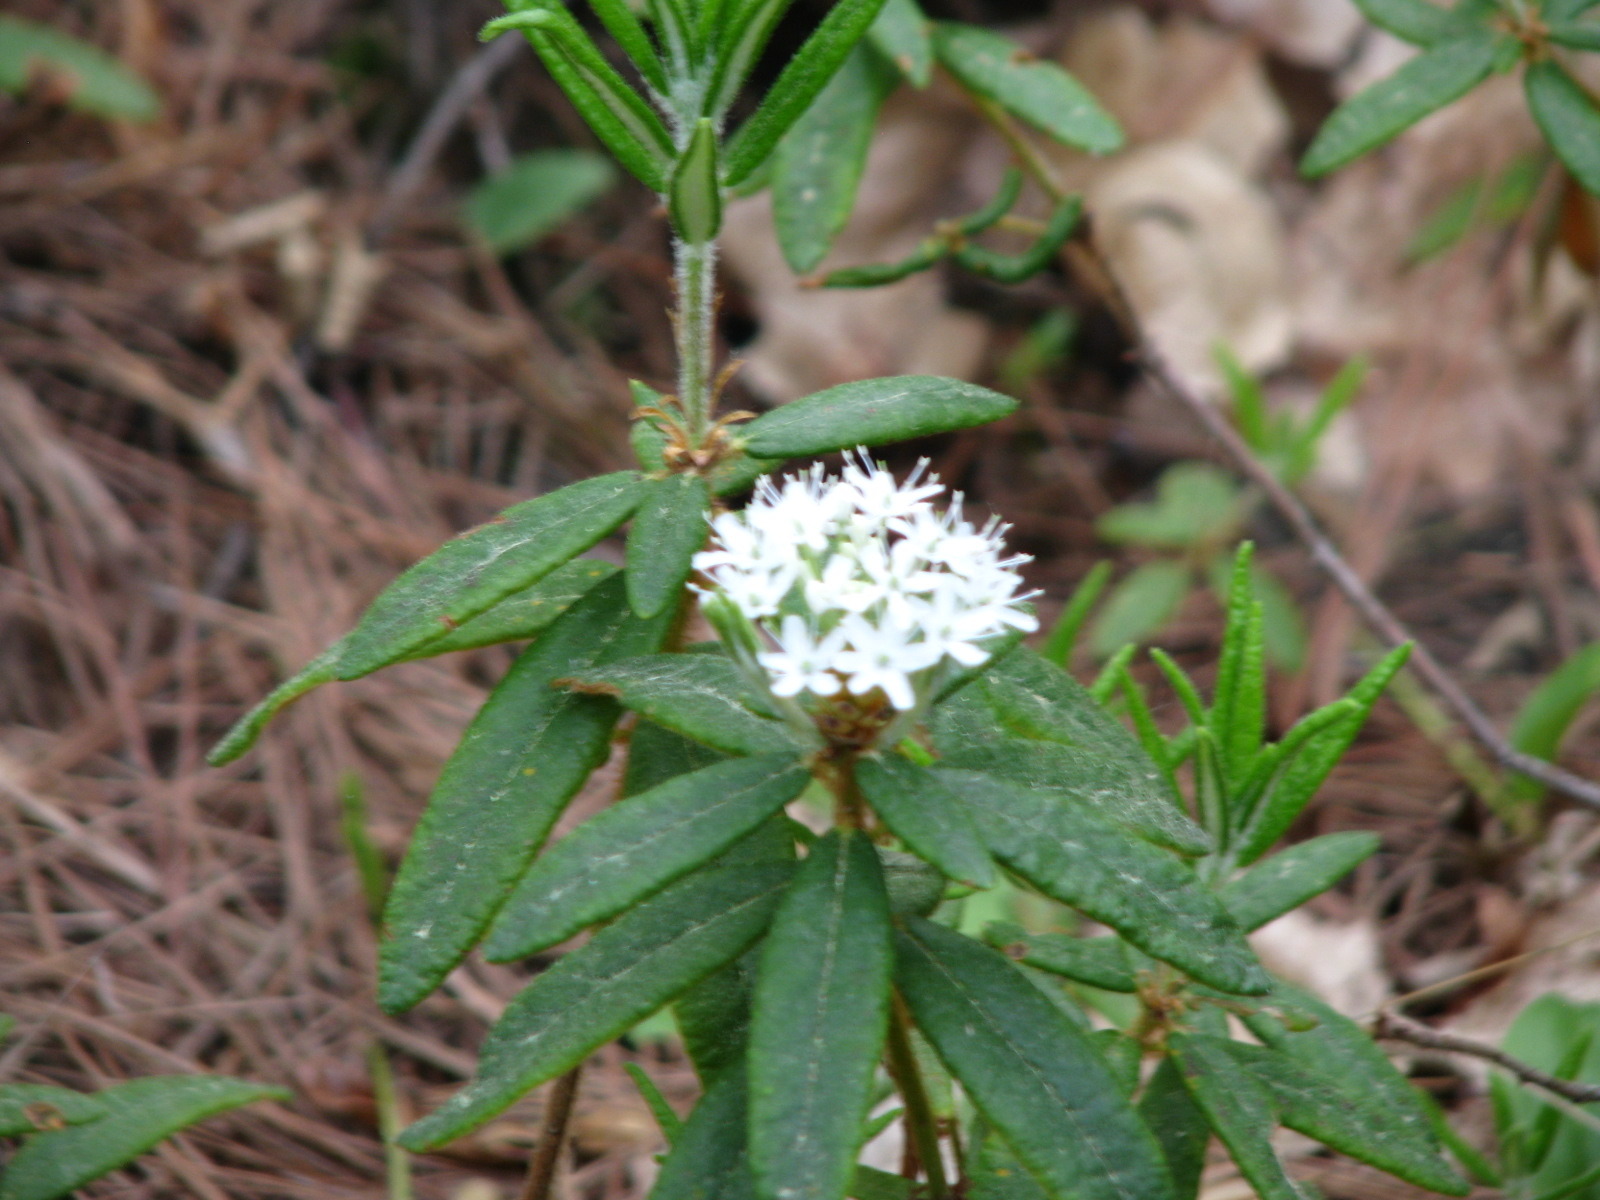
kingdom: Plantae
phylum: Tracheophyta
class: Magnoliopsida
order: Ericales
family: Ericaceae
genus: Rhododendron
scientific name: Rhododendron groenlandicum
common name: Bog labrador tea
